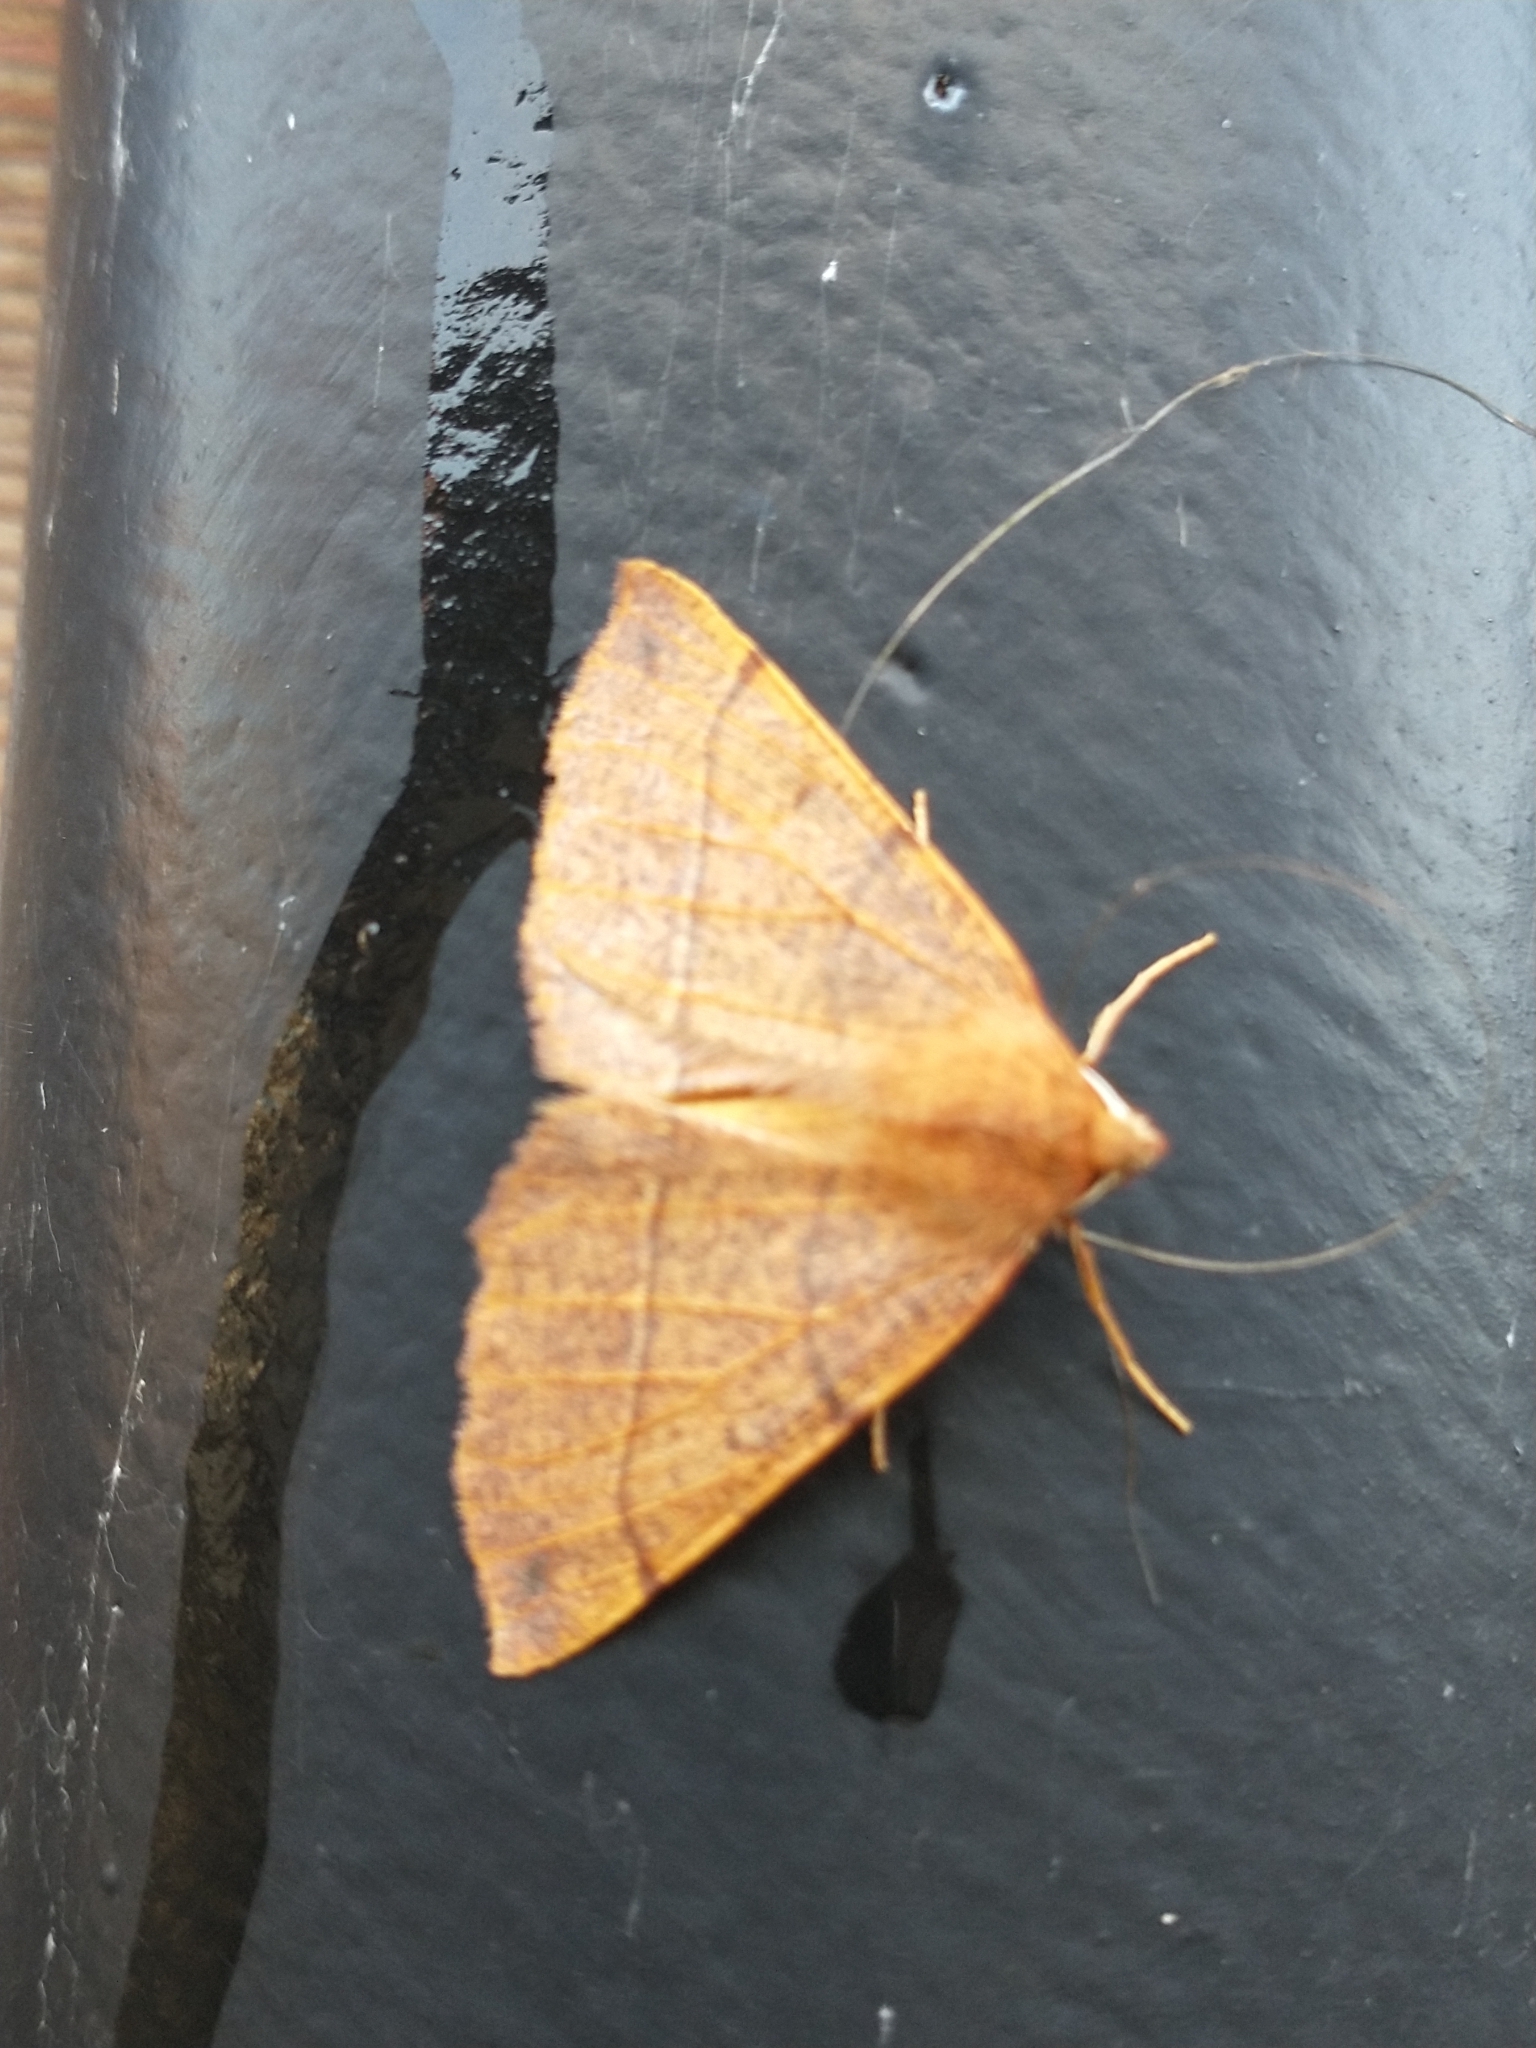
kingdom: Animalia
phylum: Arthropoda
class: Insecta
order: Lepidoptera
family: Geometridae
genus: Colotois
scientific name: Colotois pennaria
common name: Feathered thorn
